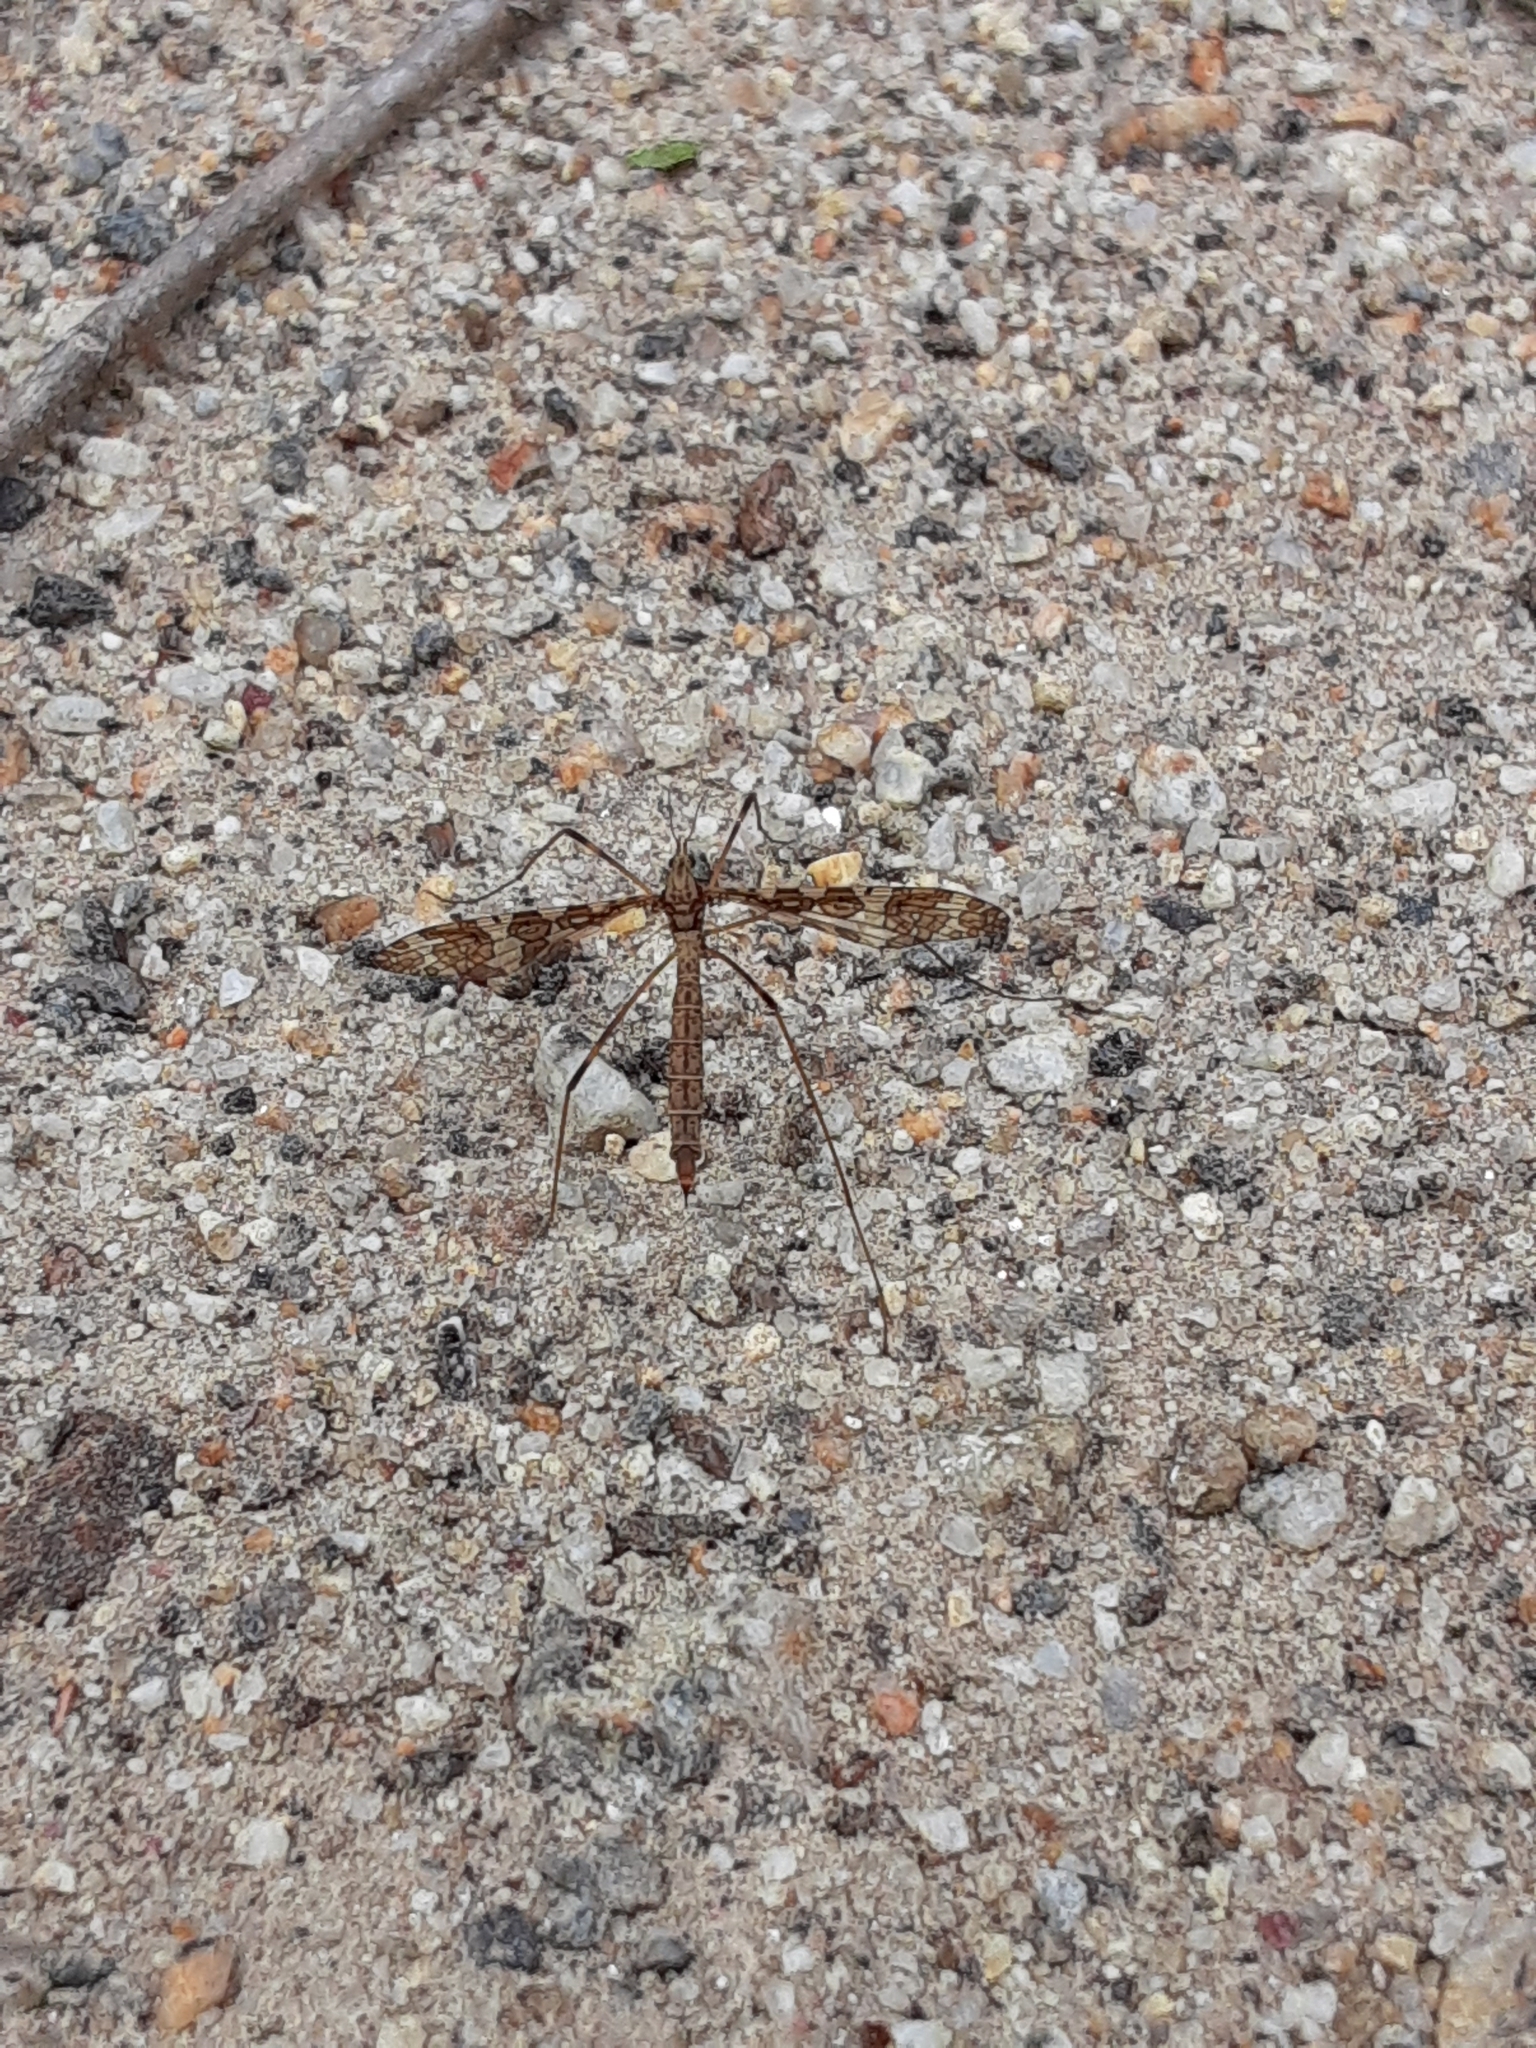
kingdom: Animalia
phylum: Arthropoda
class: Insecta
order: Diptera
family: Limoniidae
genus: Epiphragma
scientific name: Epiphragma fasciapenne
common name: Band-winged crane fly
